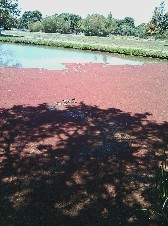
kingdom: Animalia
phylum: Chordata
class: Aves
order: Anseriformes
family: Anatidae
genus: Anas
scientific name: Anas platyrhynchos
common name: Mallard
